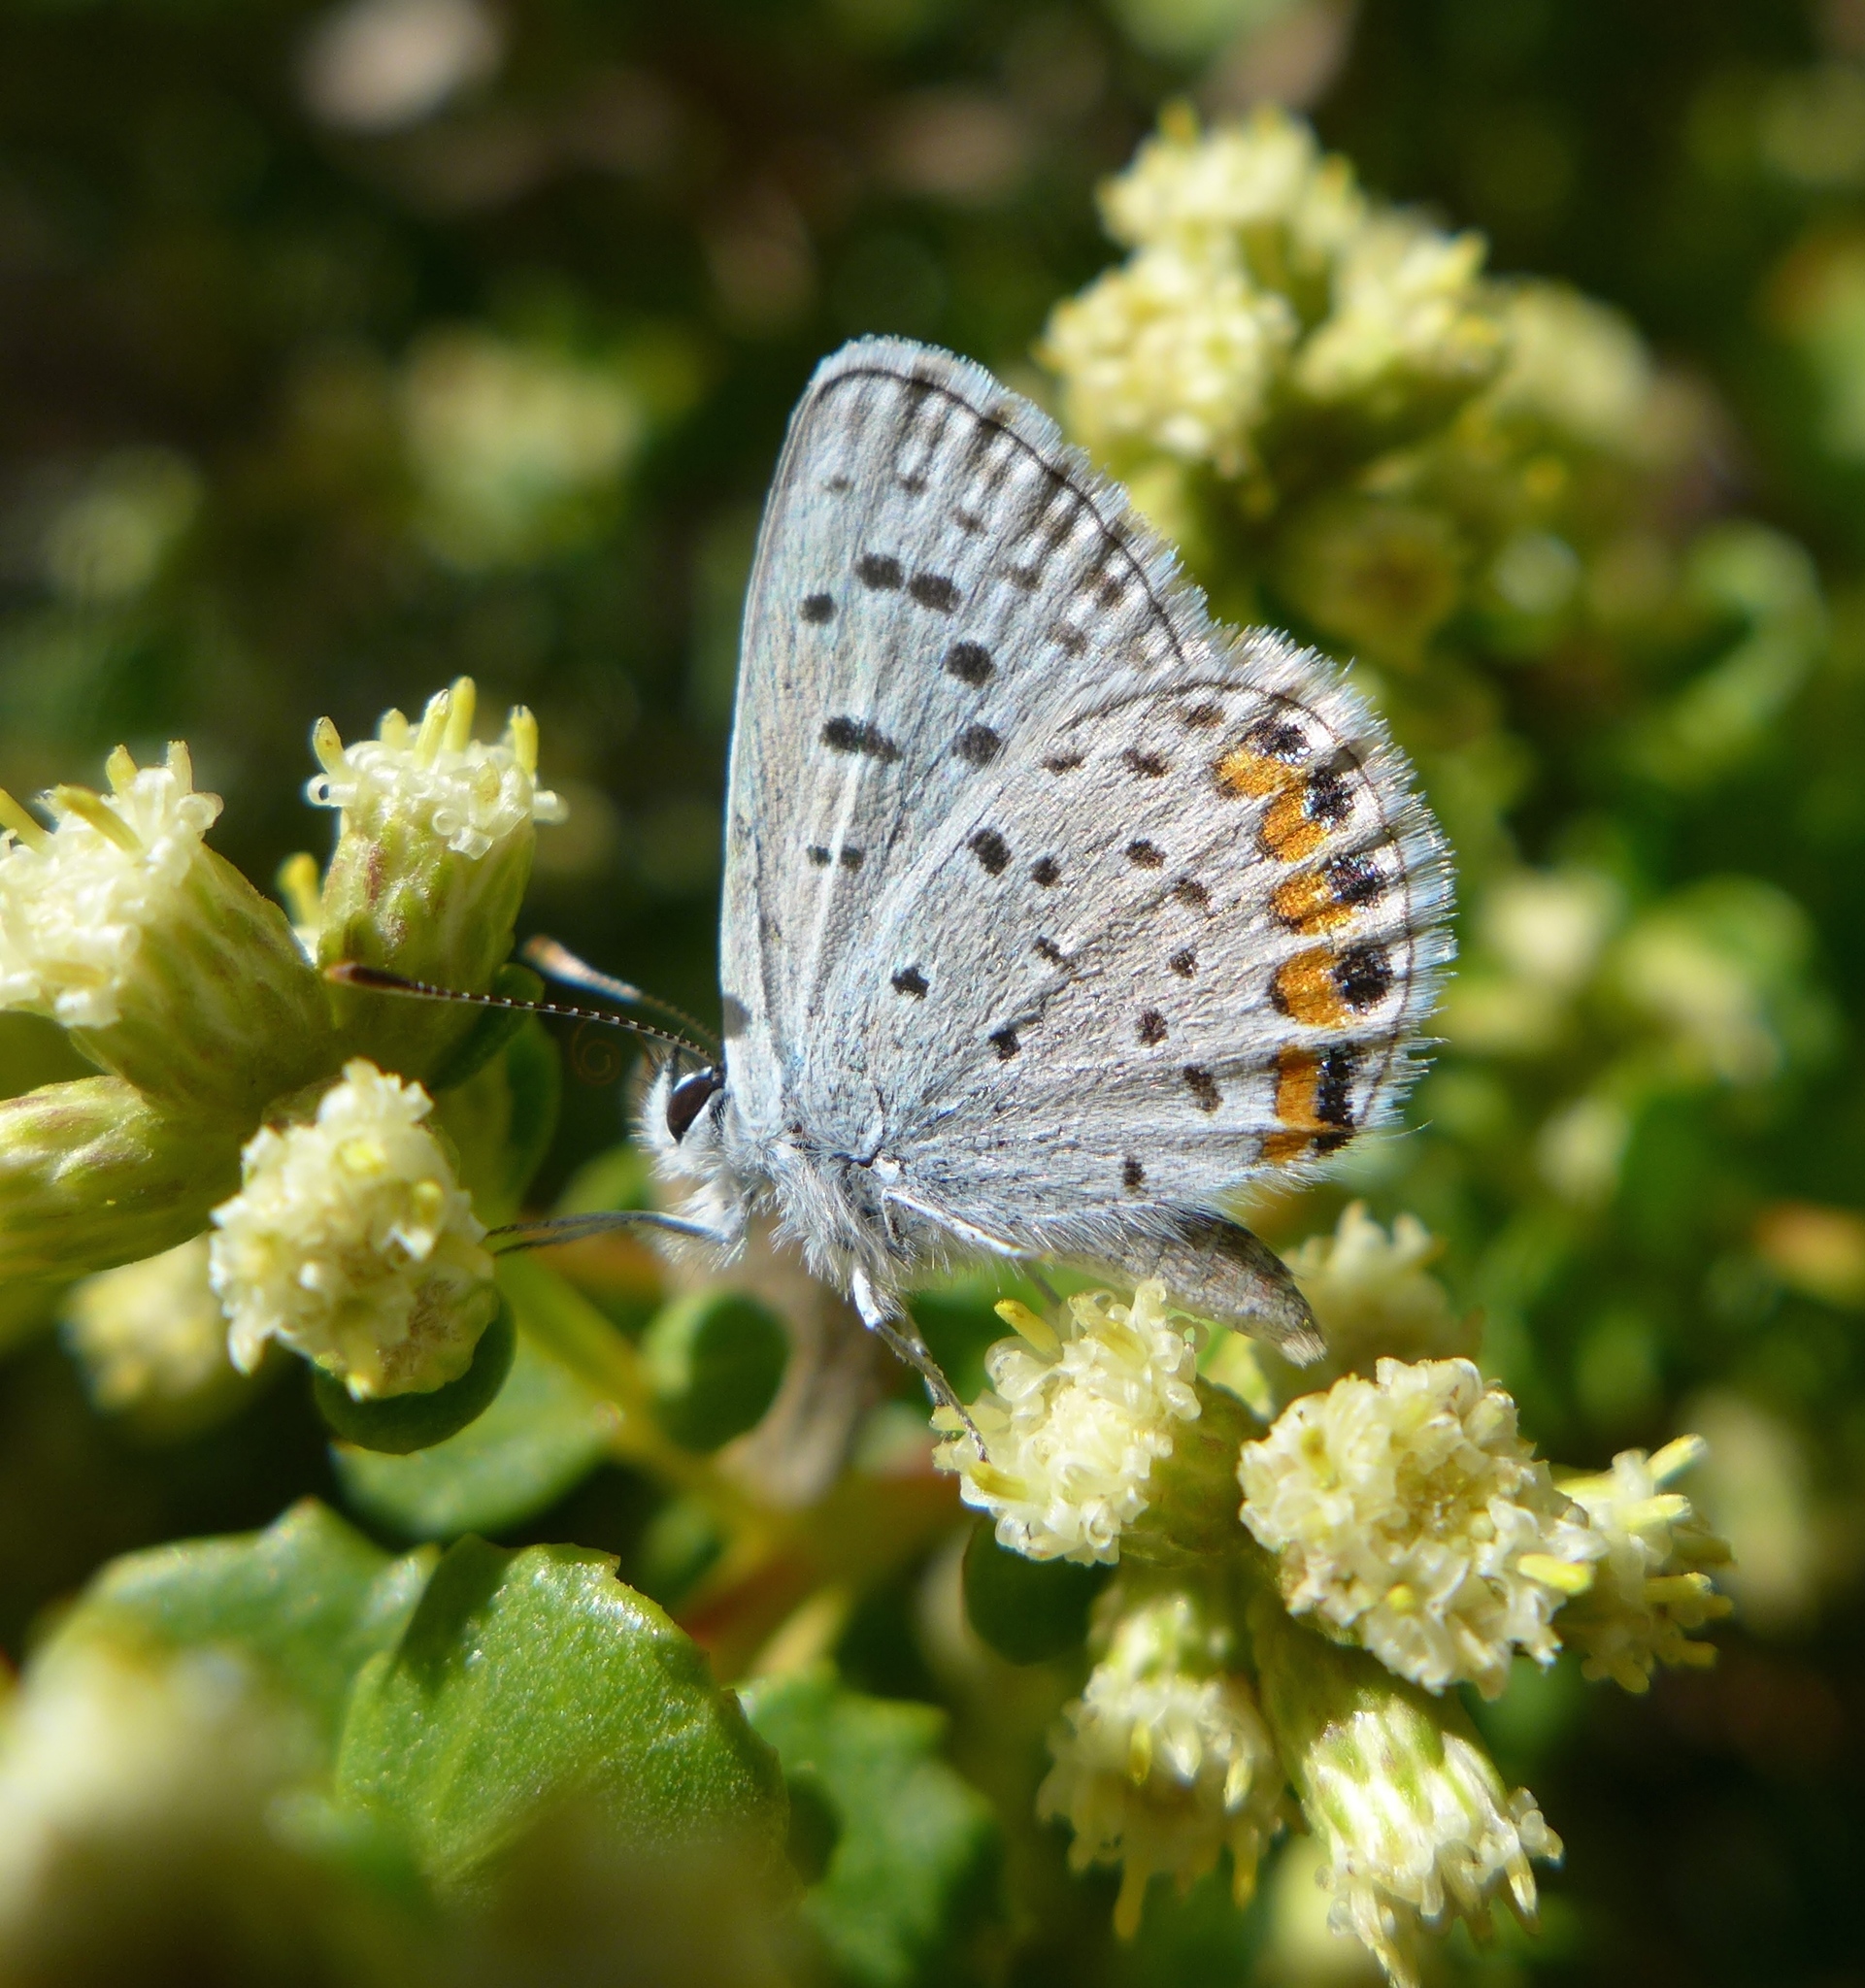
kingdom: Plantae
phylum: Tracheophyta
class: Magnoliopsida
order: Asterales
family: Asteraceae
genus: Baccharis
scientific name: Baccharis pilularis
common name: Coyotebrush
